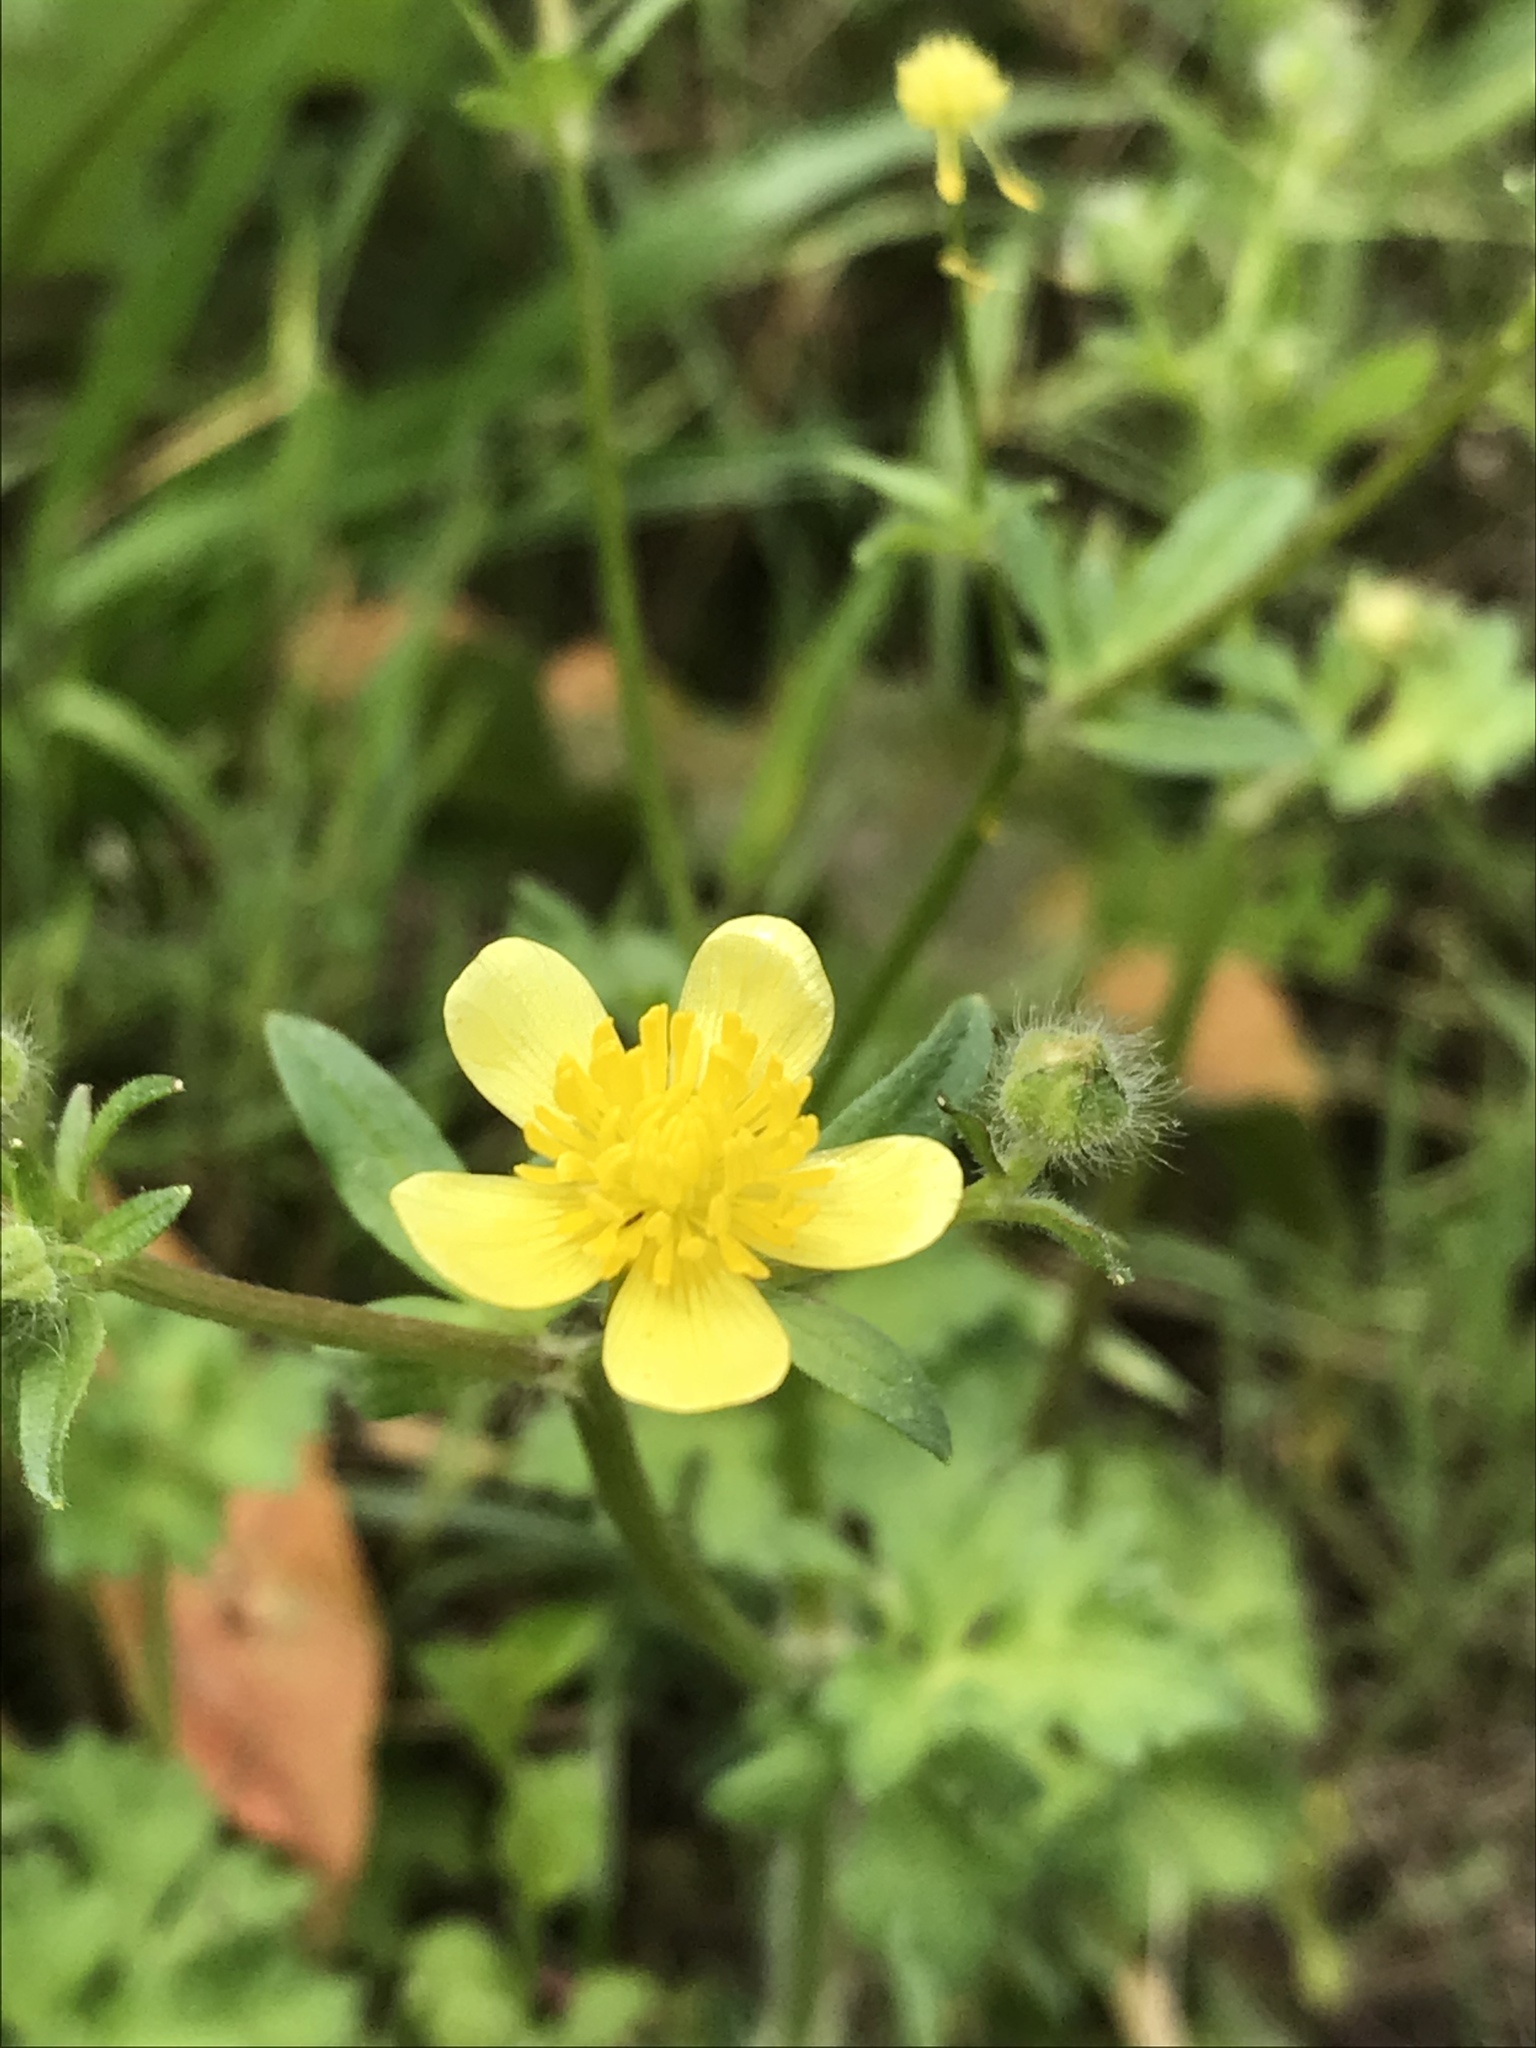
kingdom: Plantae
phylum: Tracheophyta
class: Magnoliopsida
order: Ranunculales
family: Ranunculaceae
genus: Ranunculus
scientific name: Ranunculus muricatus
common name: Rough-fruited buttercup
